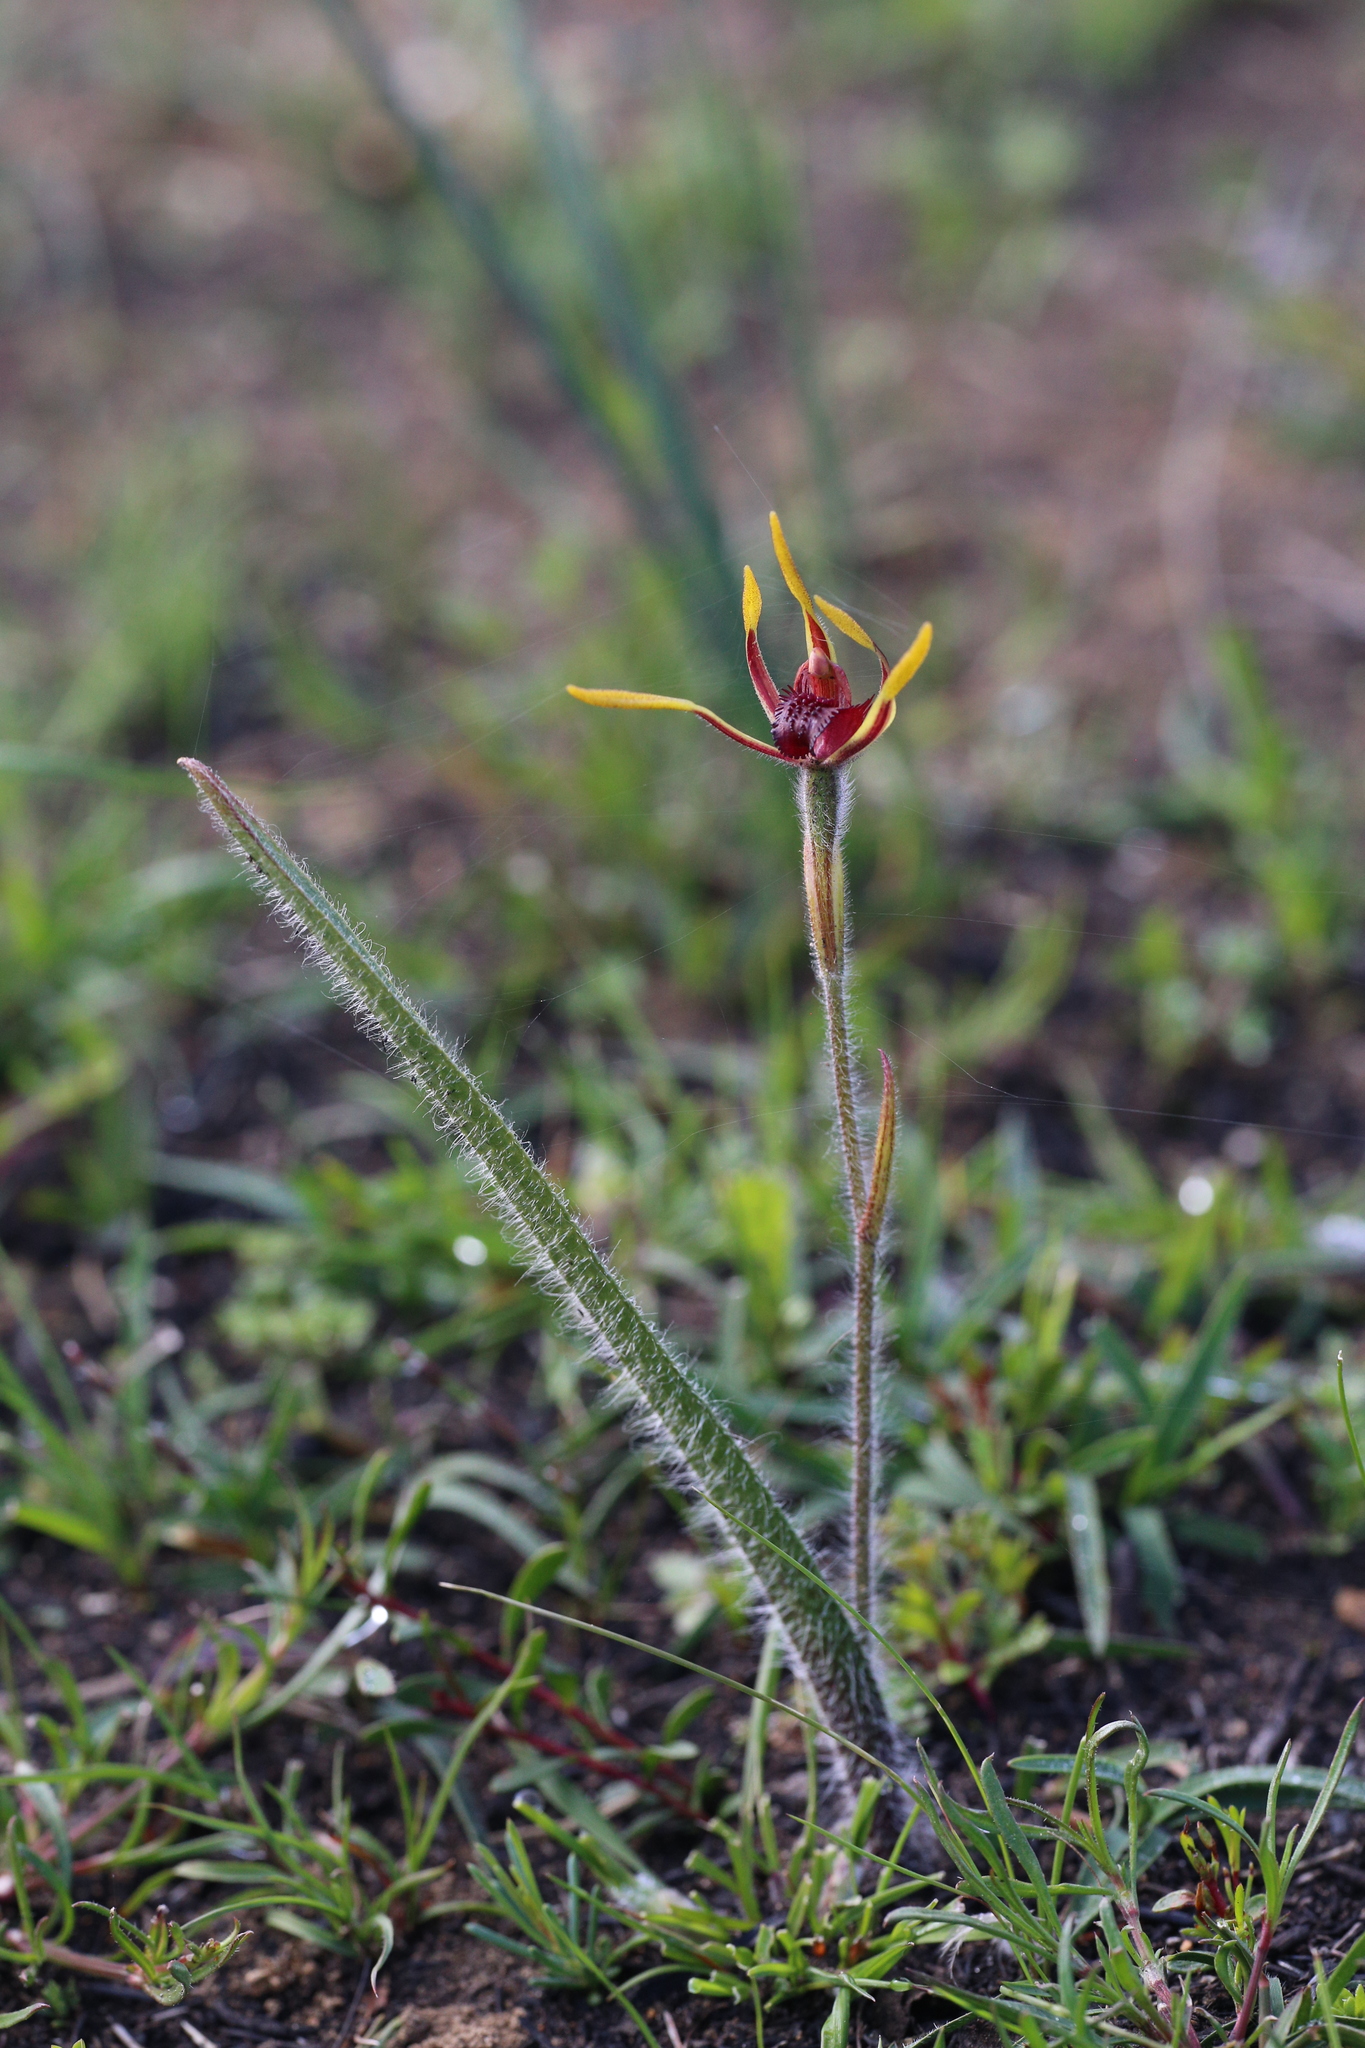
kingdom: Plantae
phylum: Tracheophyta
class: Liliopsida
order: Asparagales
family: Orchidaceae
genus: Caladenia
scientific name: Caladenia arrecta
